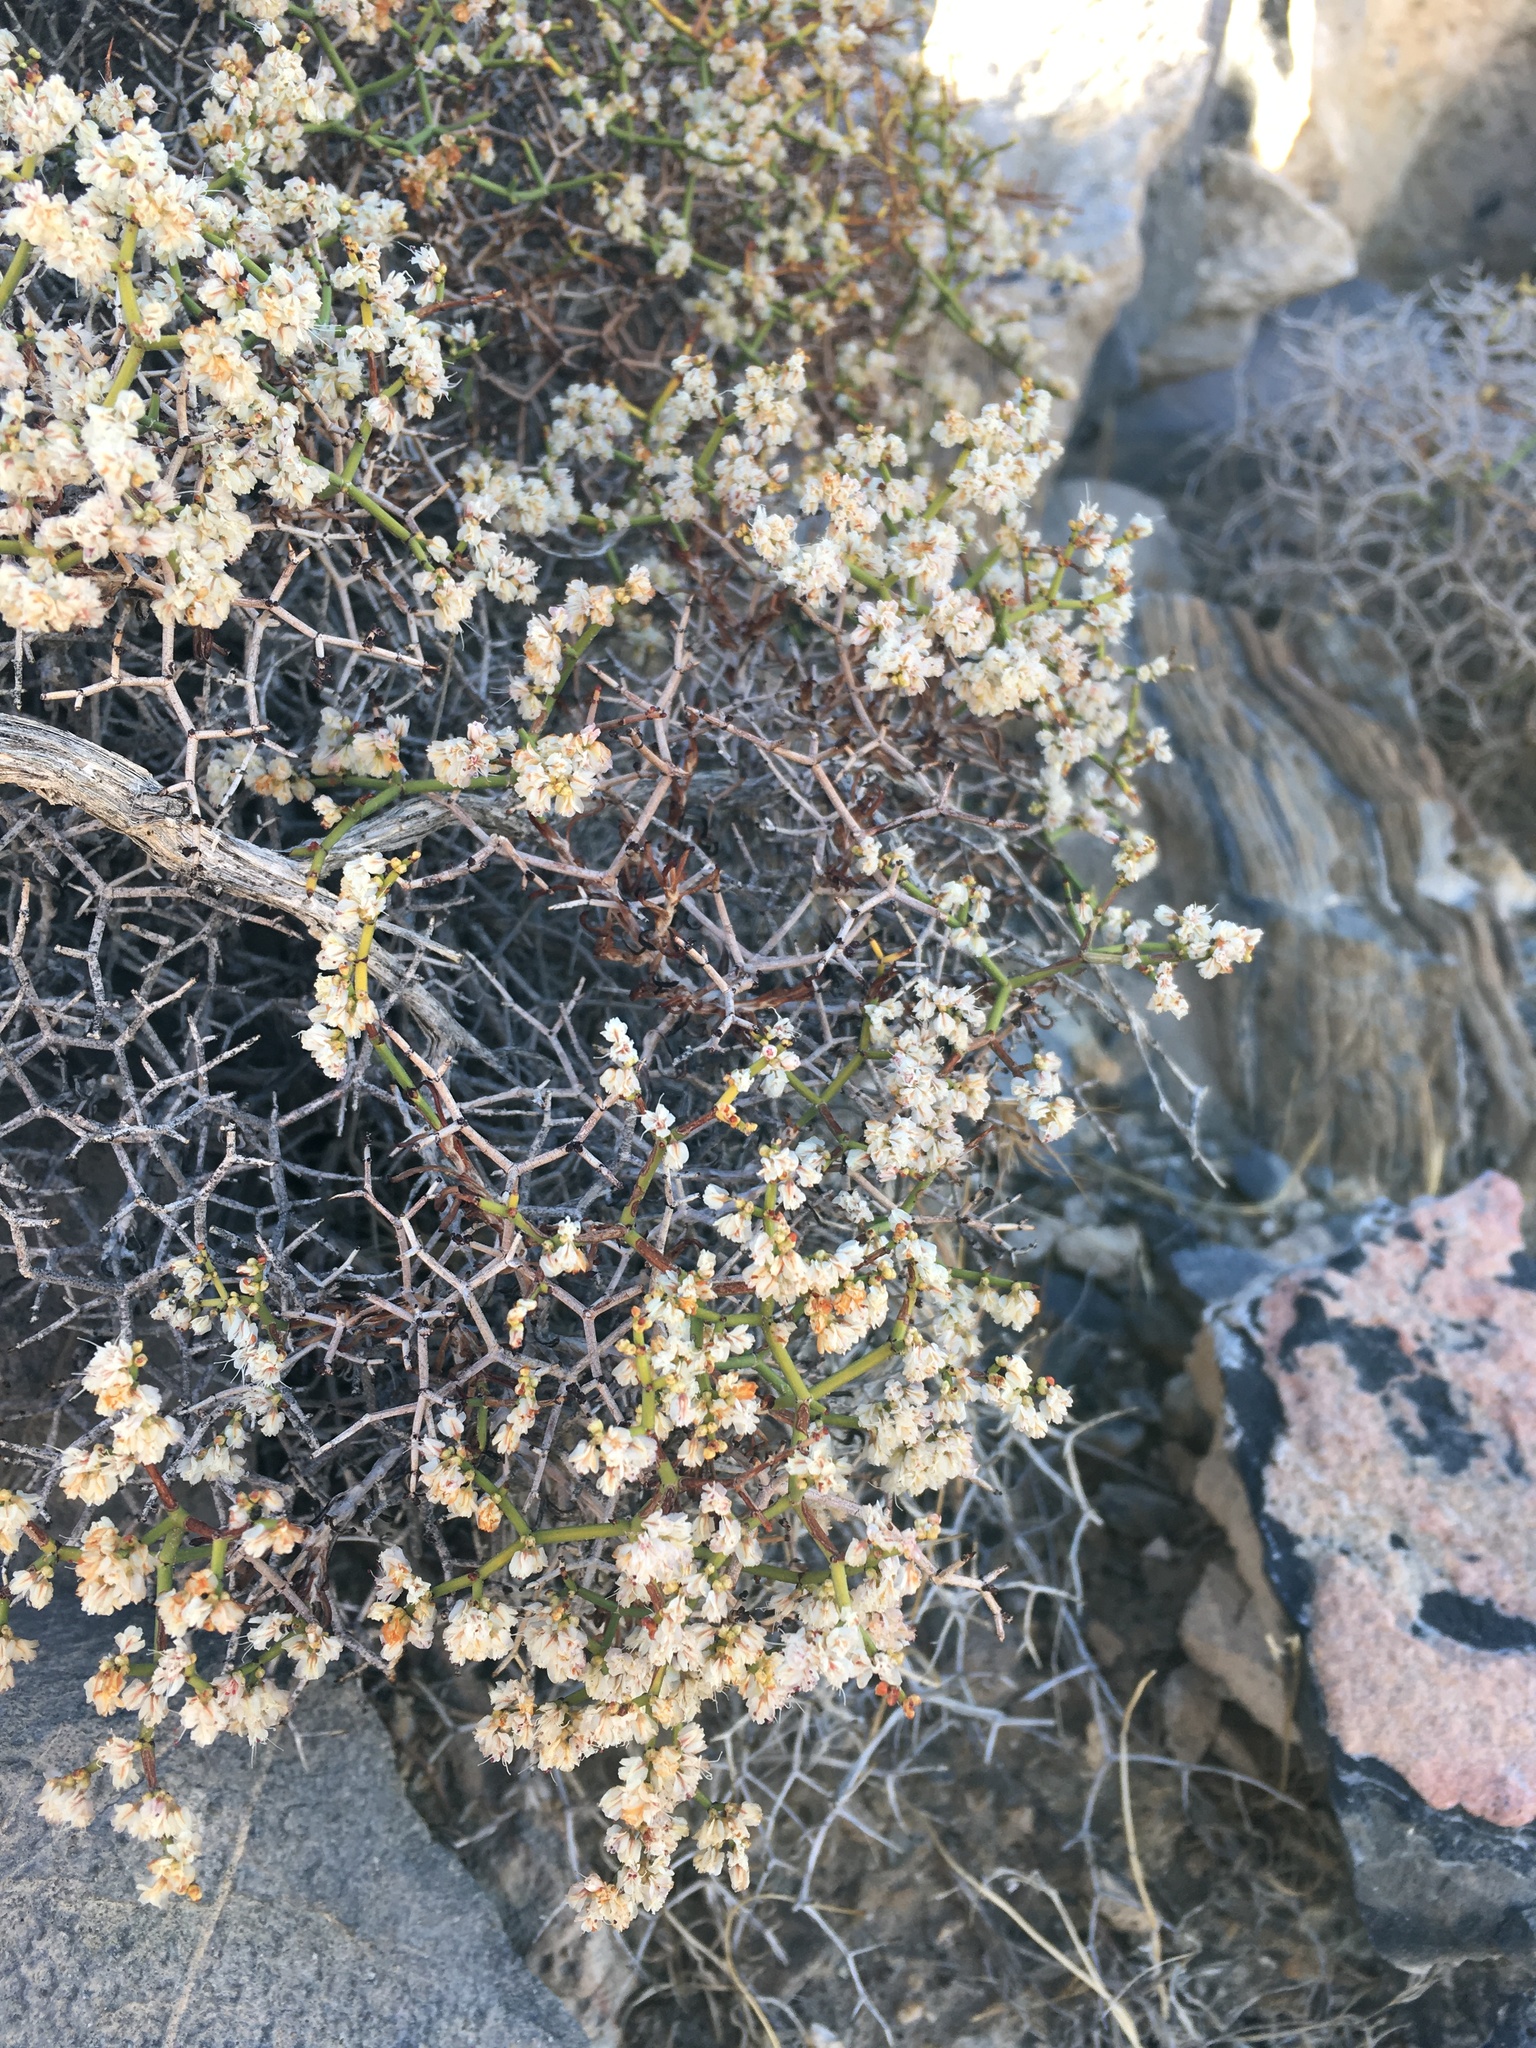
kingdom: Plantae
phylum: Tracheophyta
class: Magnoliopsida
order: Caryophyllales
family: Polygonaceae
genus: Eriogonum
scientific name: Eriogonum heermannii
